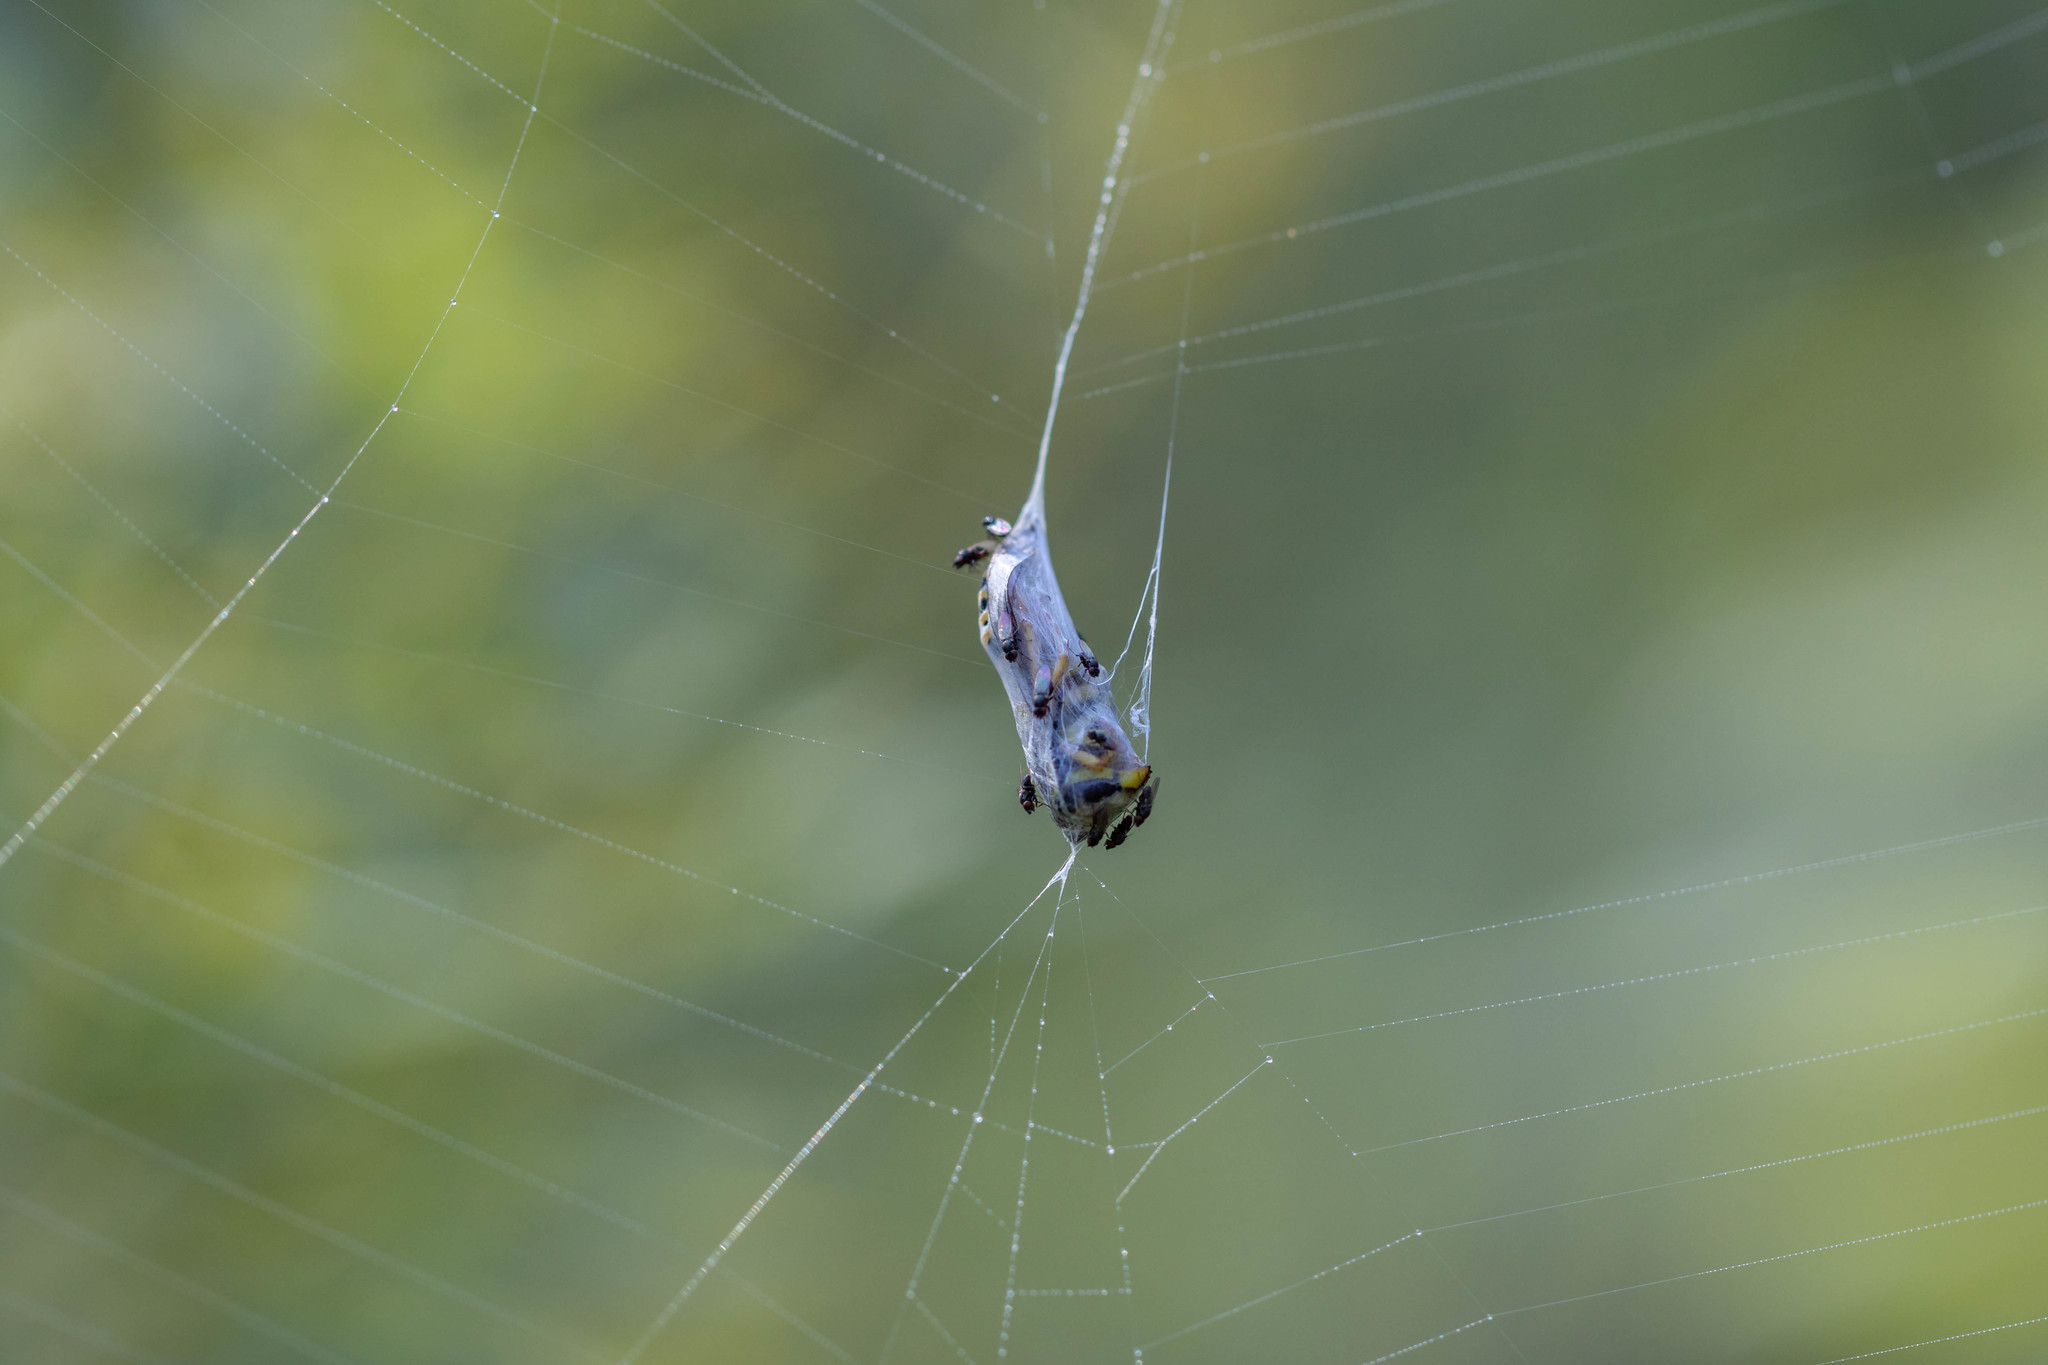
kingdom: Animalia
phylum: Arthropoda
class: Arachnida
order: Araneae
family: Araneidae
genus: Argiope
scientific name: Argiope aurantia
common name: Orb weavers
